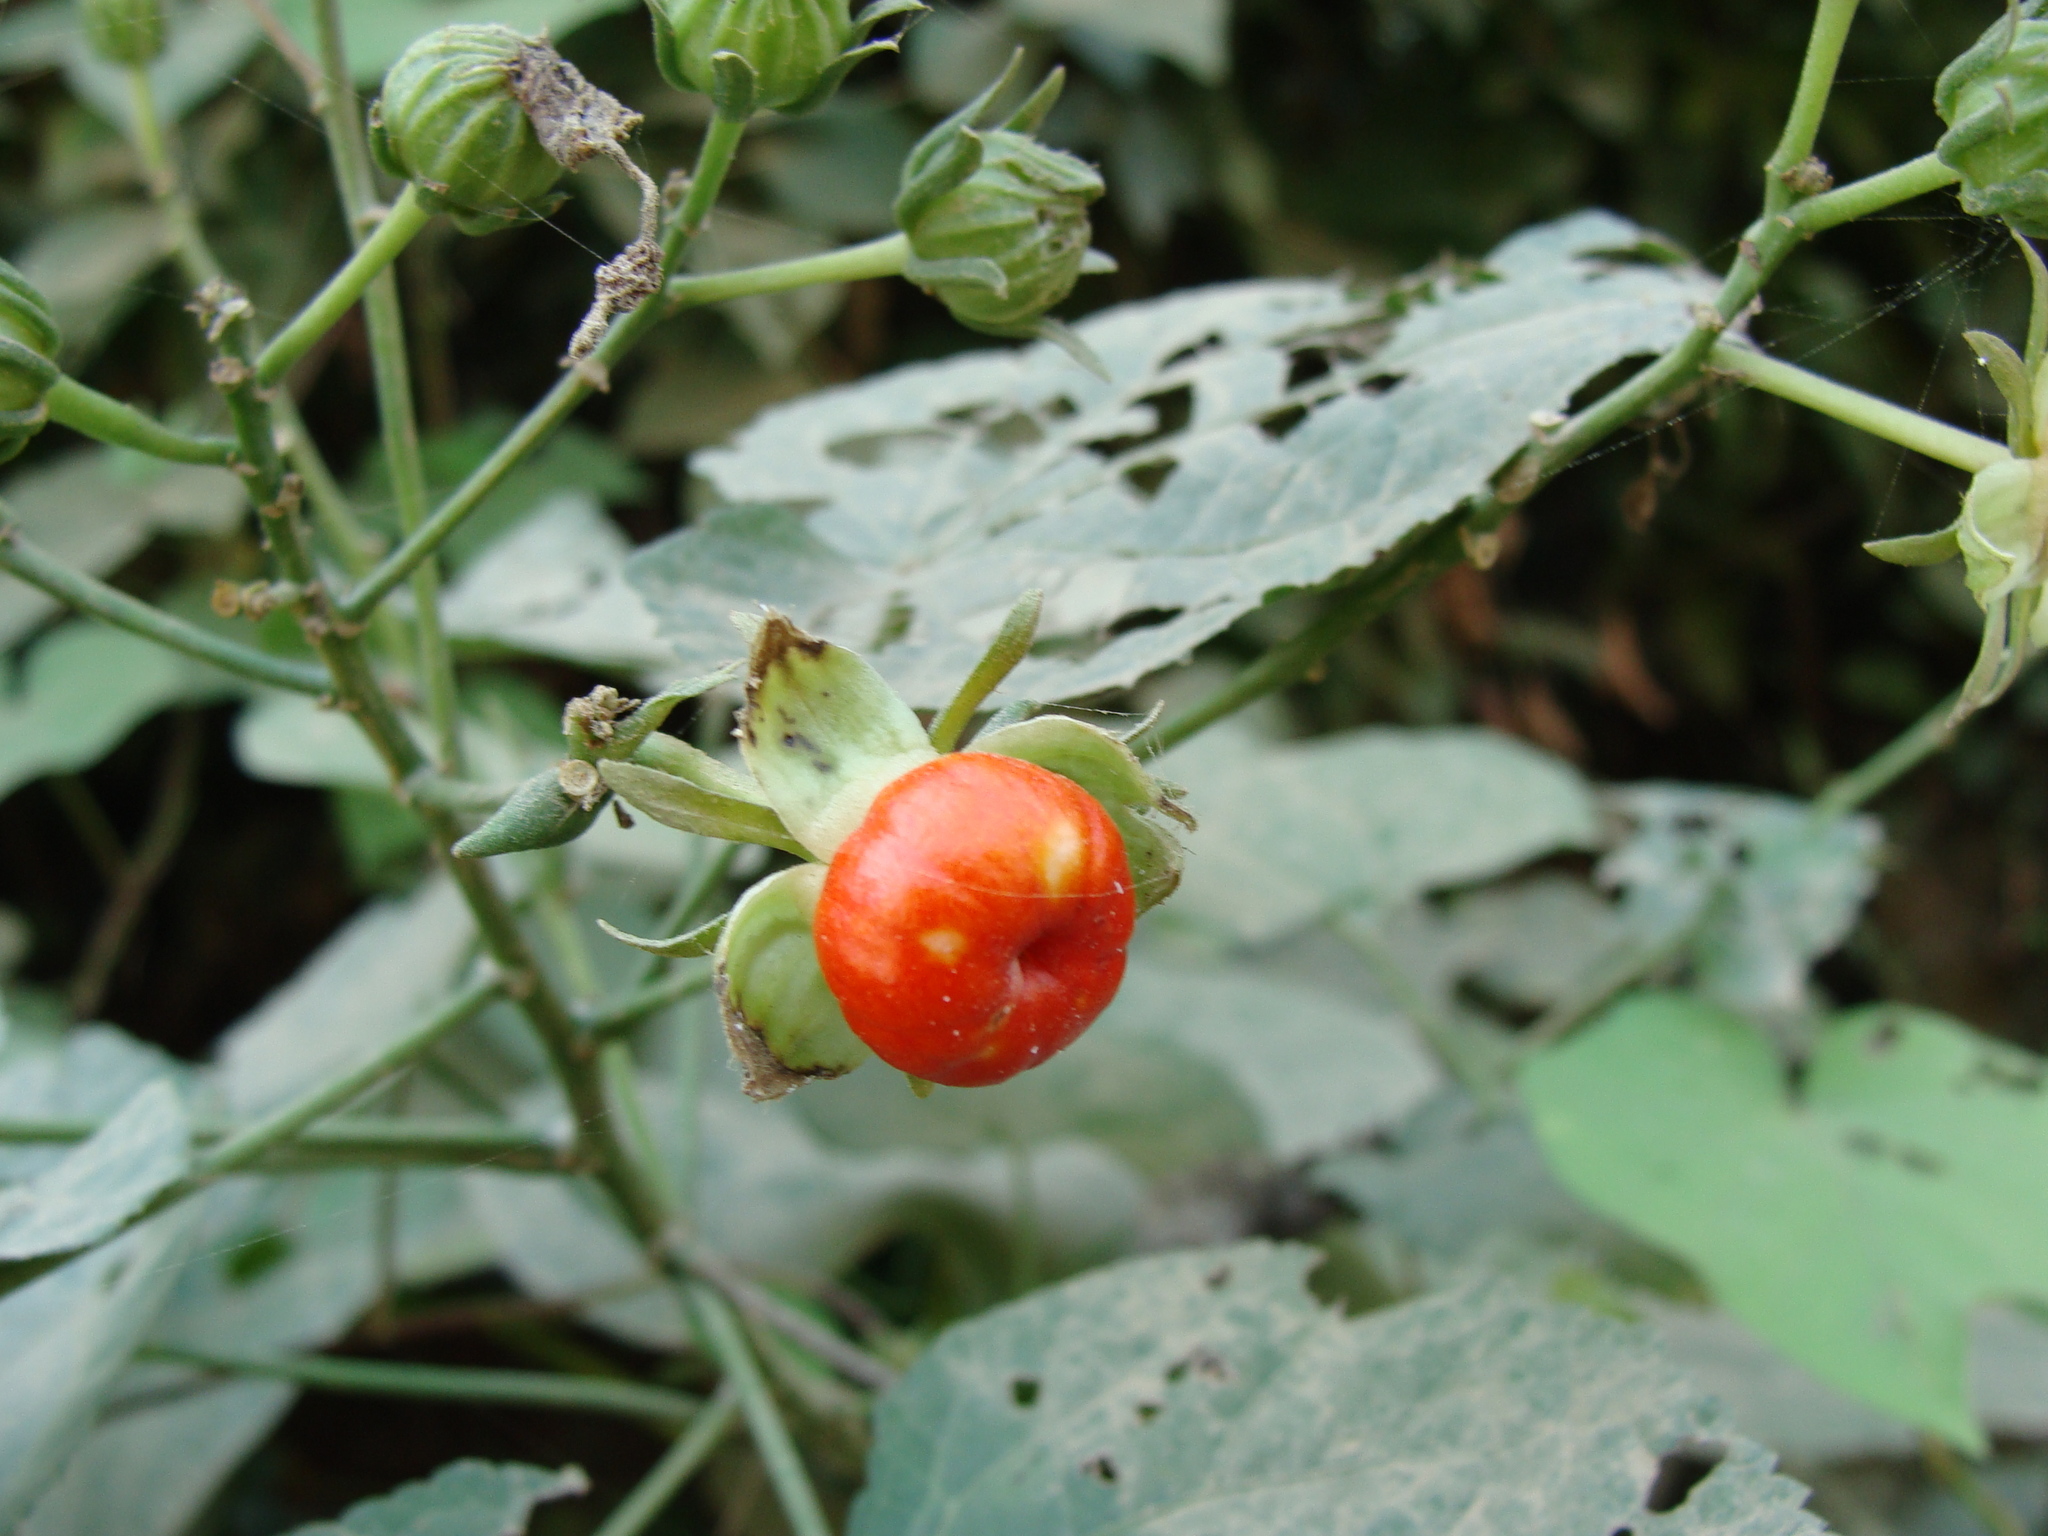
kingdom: Plantae
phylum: Tracheophyta
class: Magnoliopsida
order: Malvales
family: Malvaceae
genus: Malvaviscus
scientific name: Malvaviscus arboreus
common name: Wax mallow
